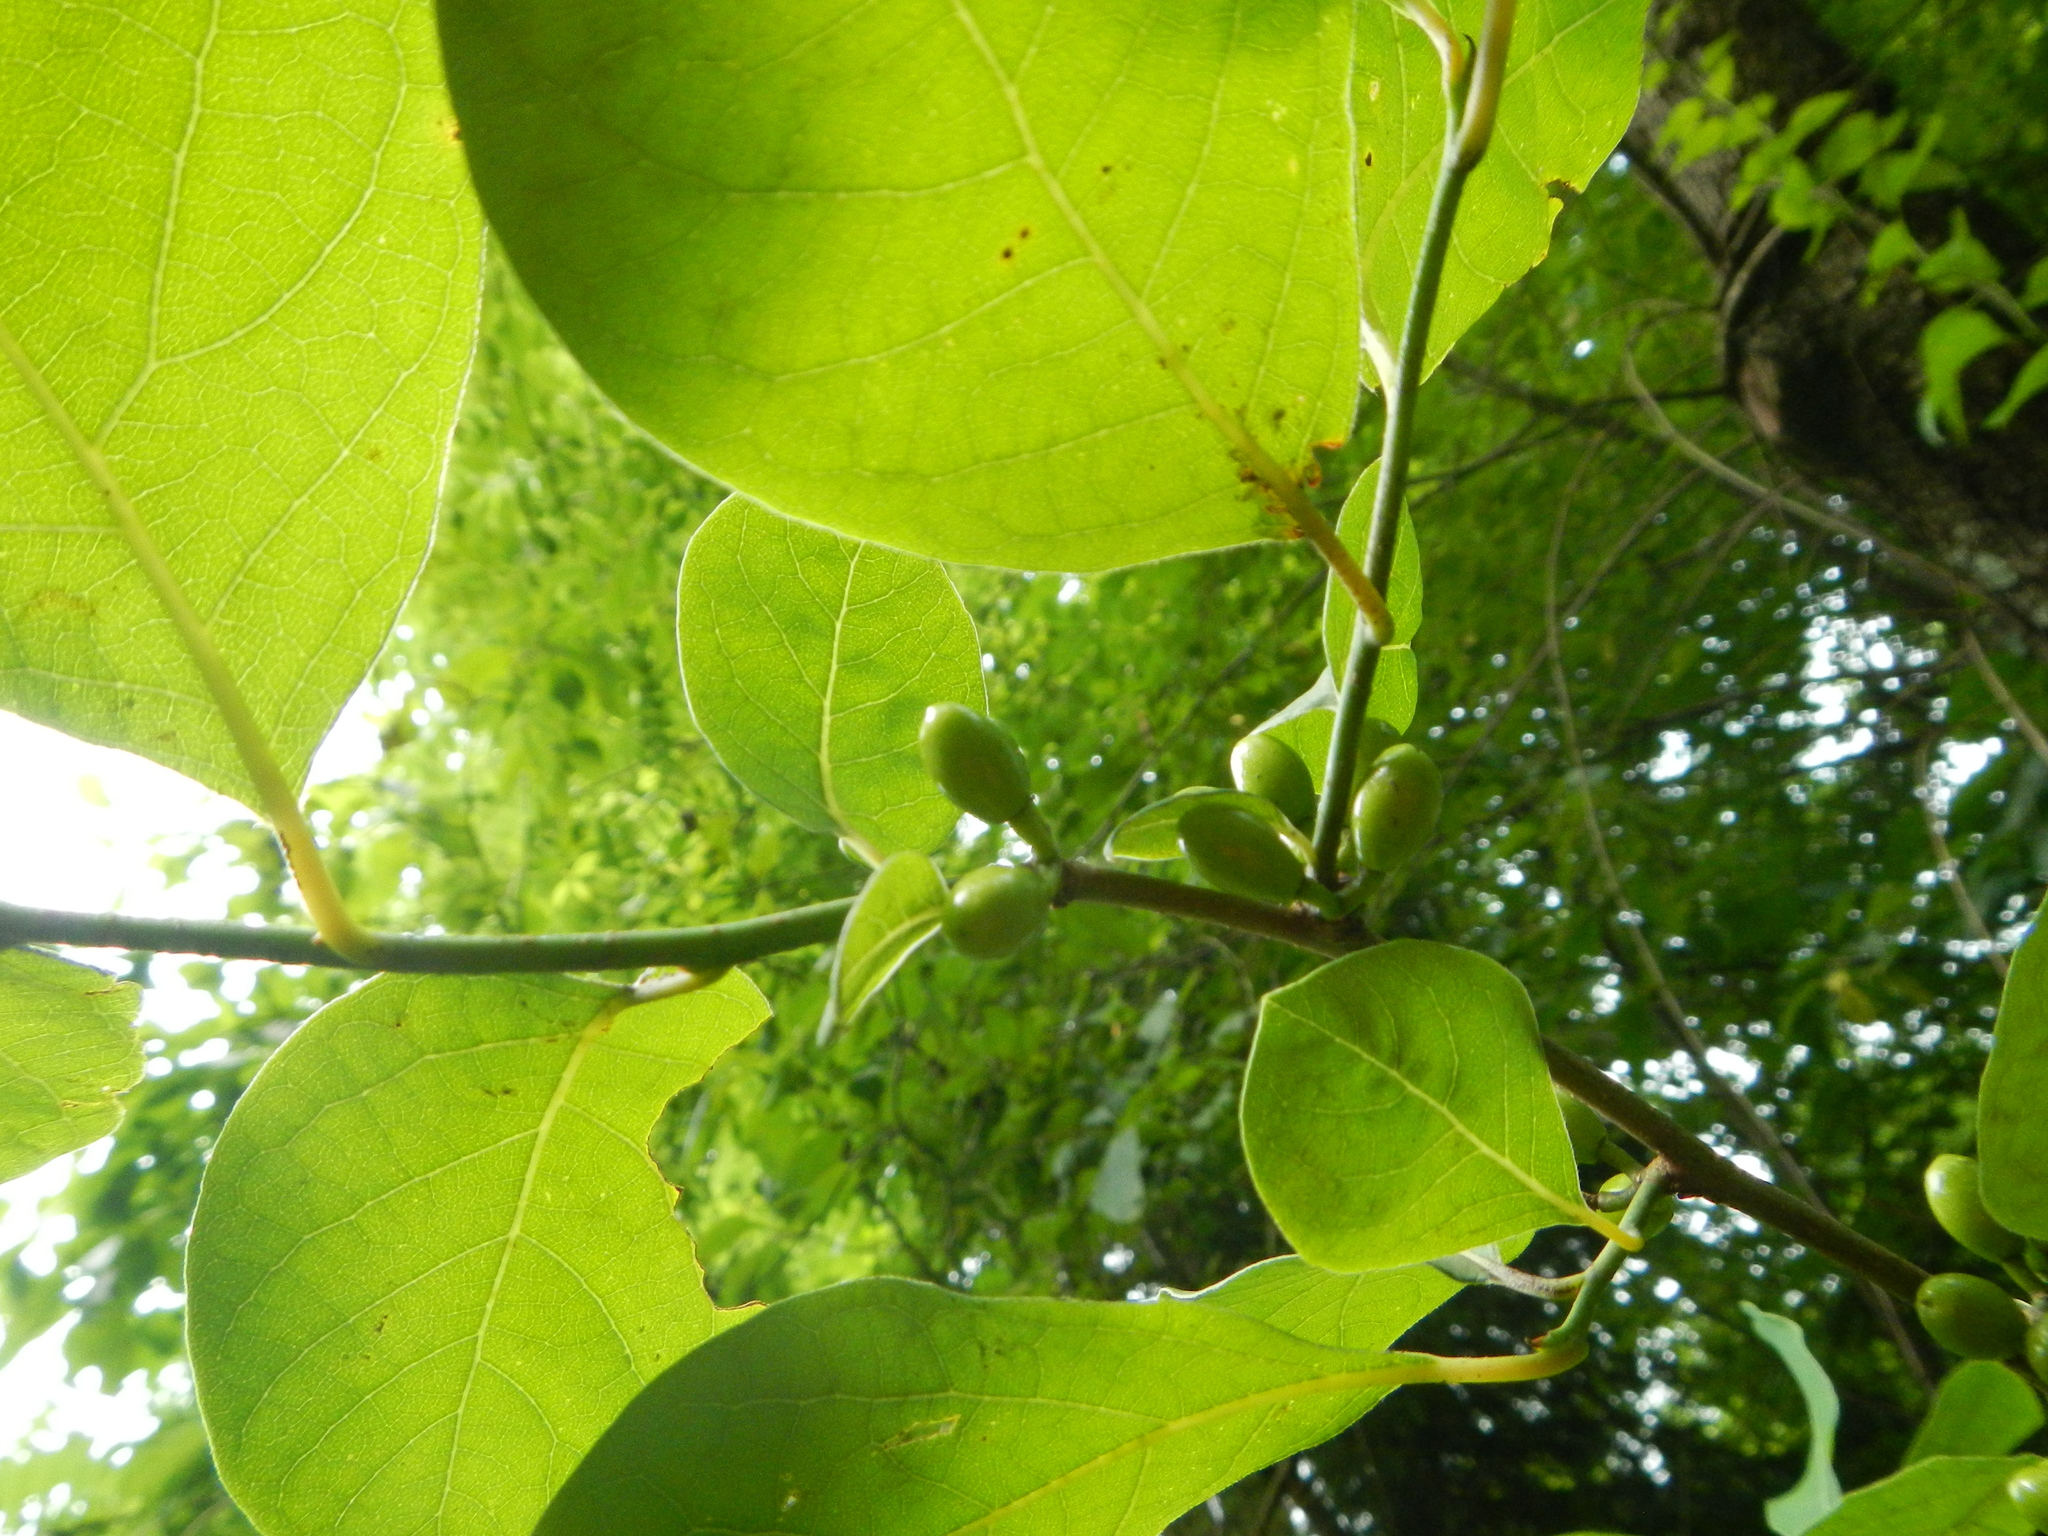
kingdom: Plantae
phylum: Tracheophyta
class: Magnoliopsida
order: Laurales
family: Lauraceae
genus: Lindera
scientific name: Lindera benzoin
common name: Spicebush
